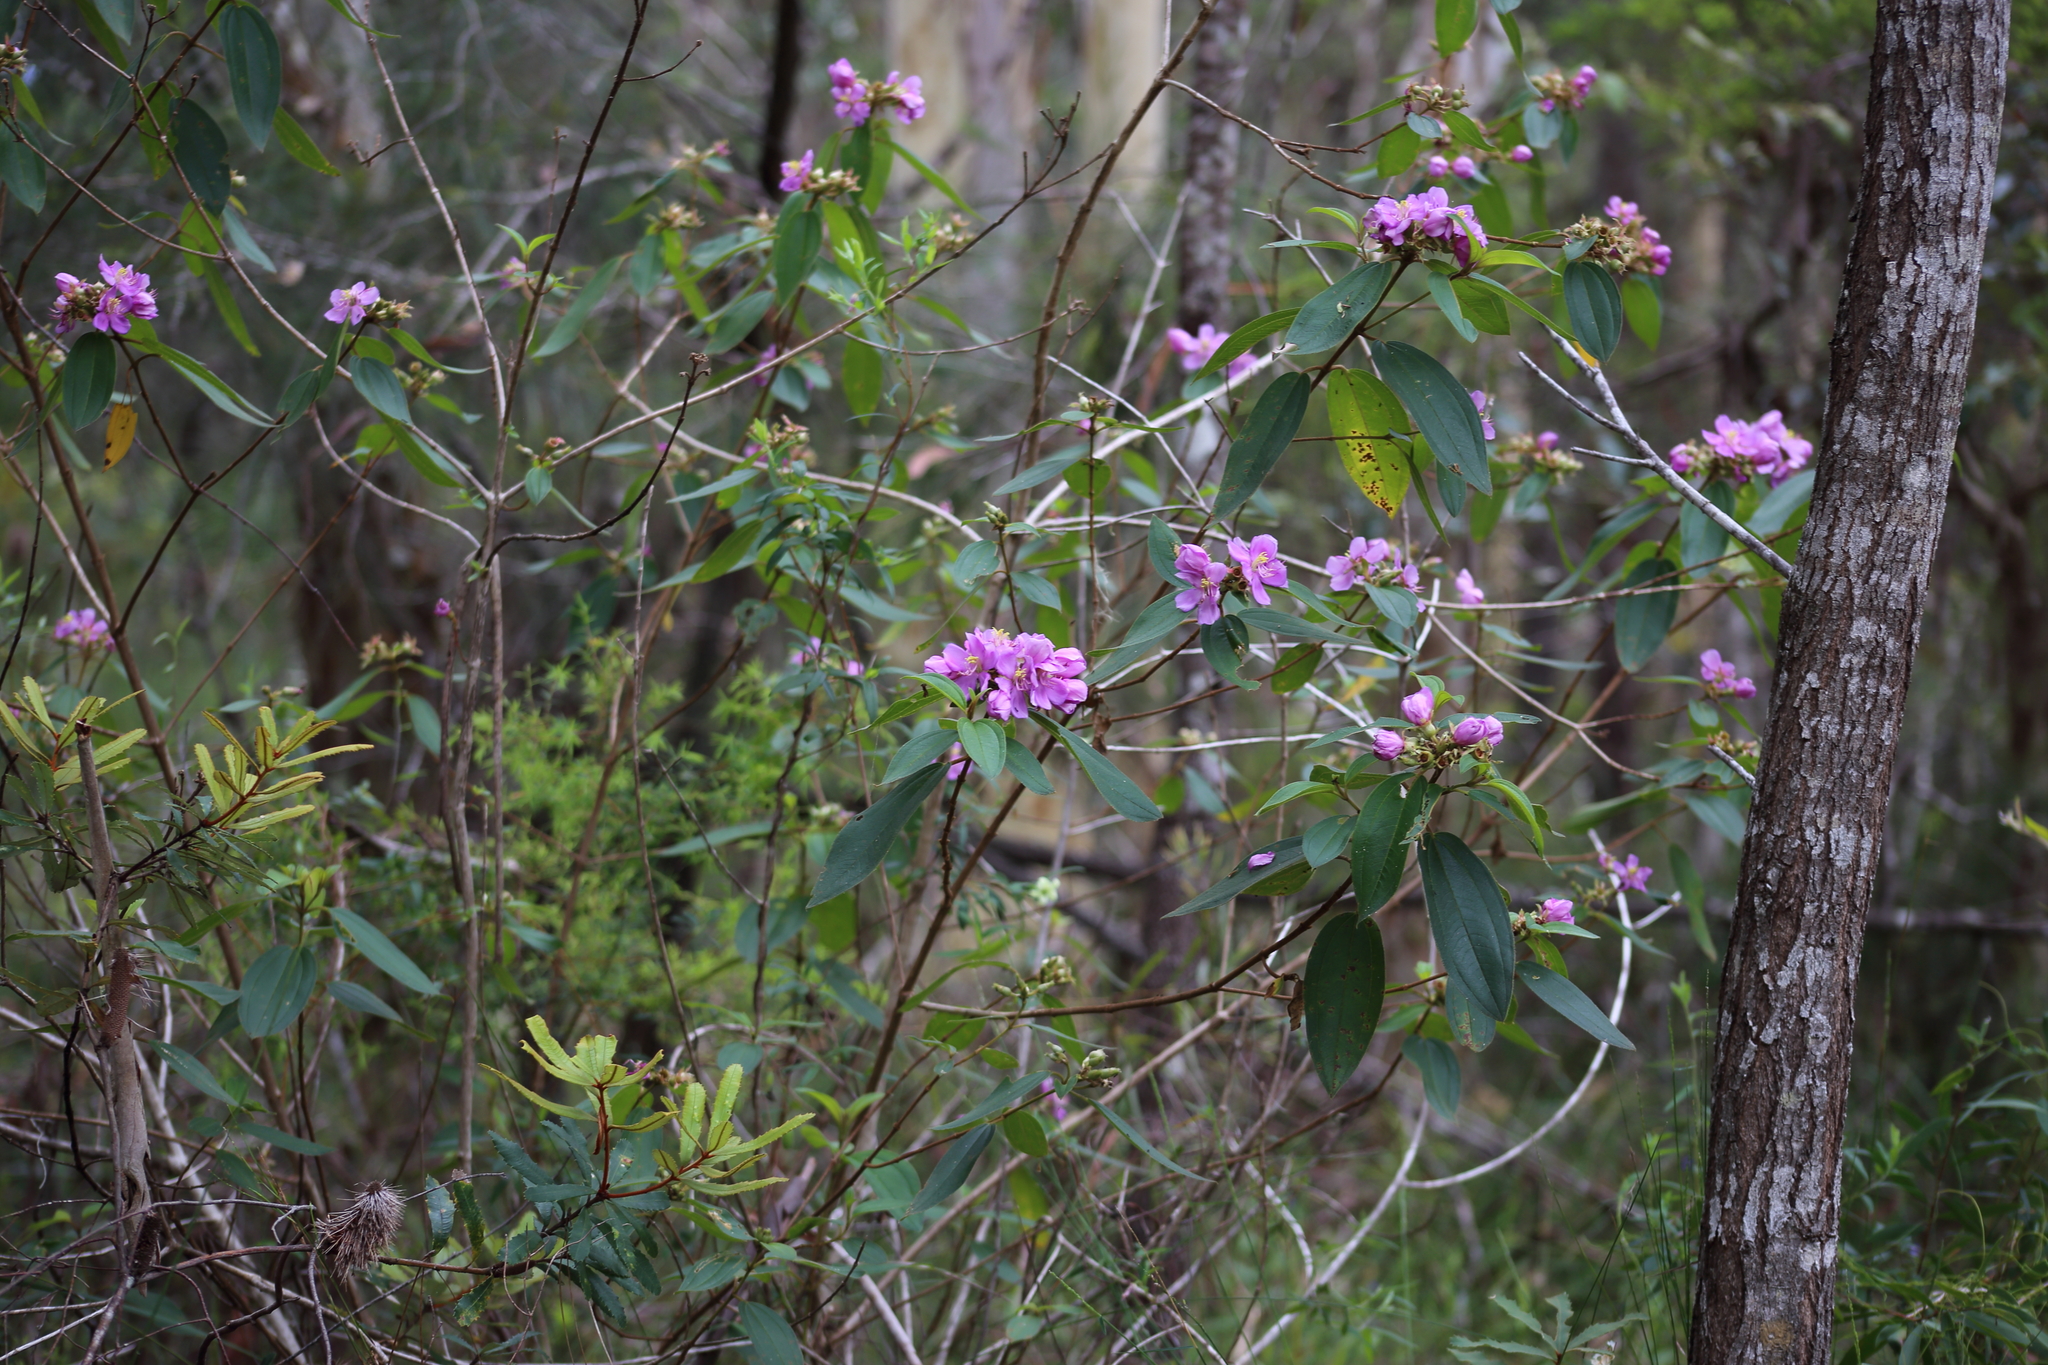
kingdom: Plantae
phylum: Tracheophyta
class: Magnoliopsida
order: Myrtales
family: Melastomataceae
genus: Melastoma
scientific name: Melastoma malabathricum
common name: Indian-rhododendron
